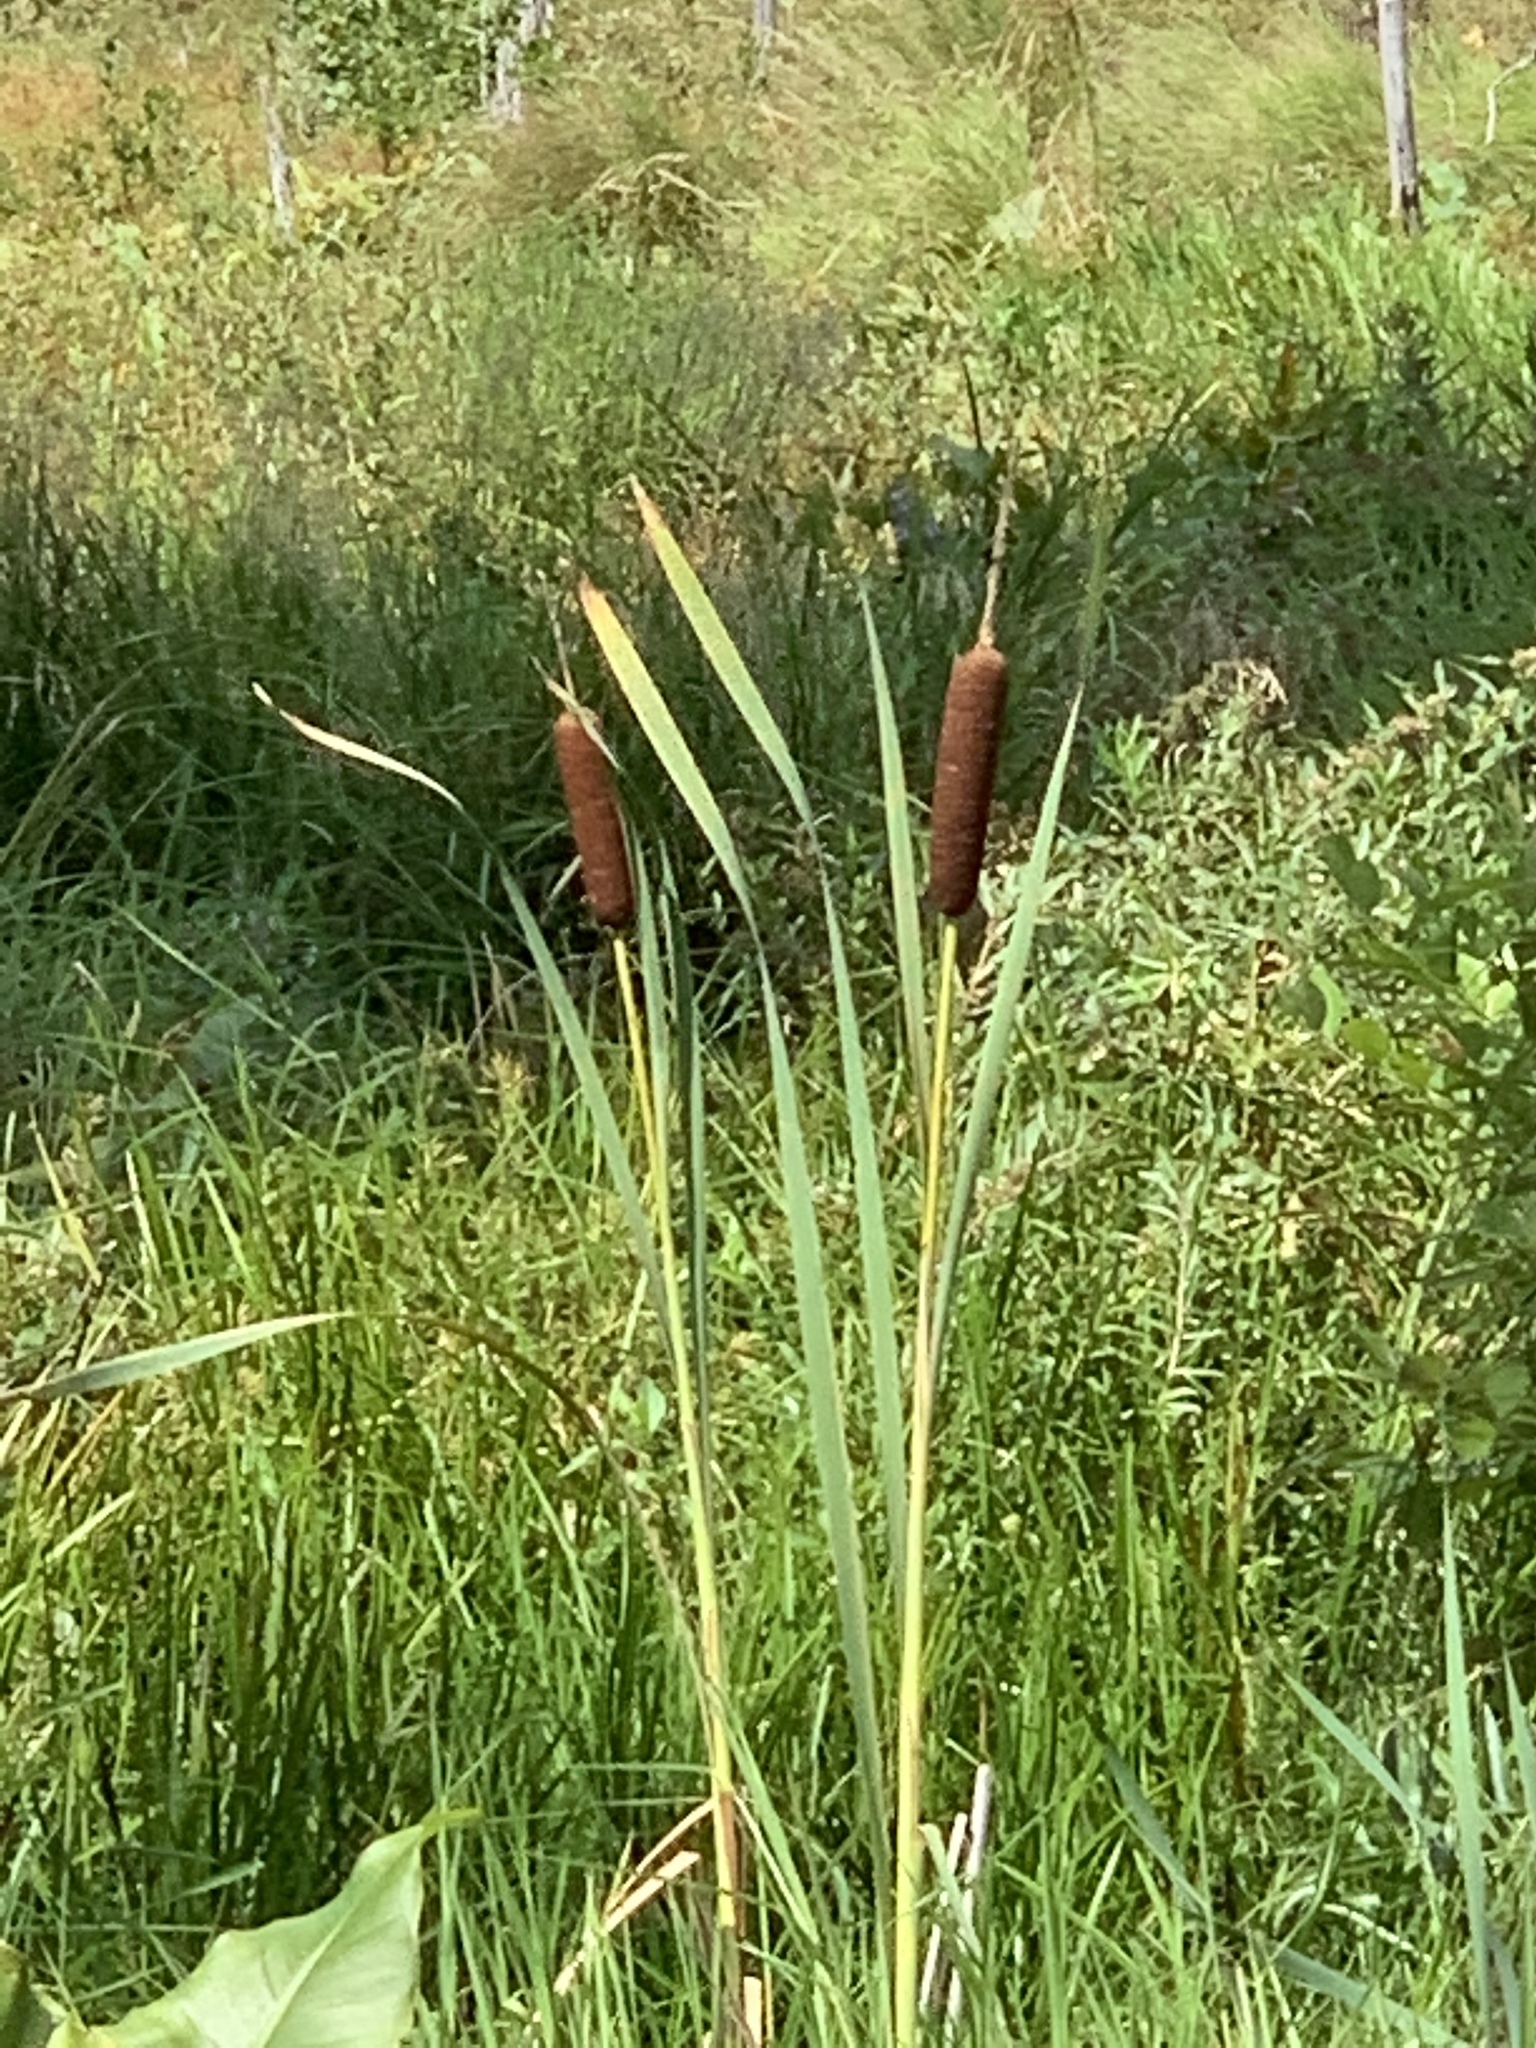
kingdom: Plantae
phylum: Tracheophyta
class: Liliopsida
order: Poales
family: Typhaceae
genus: Typha
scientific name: Typha latifolia
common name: Broadleaf cattail
